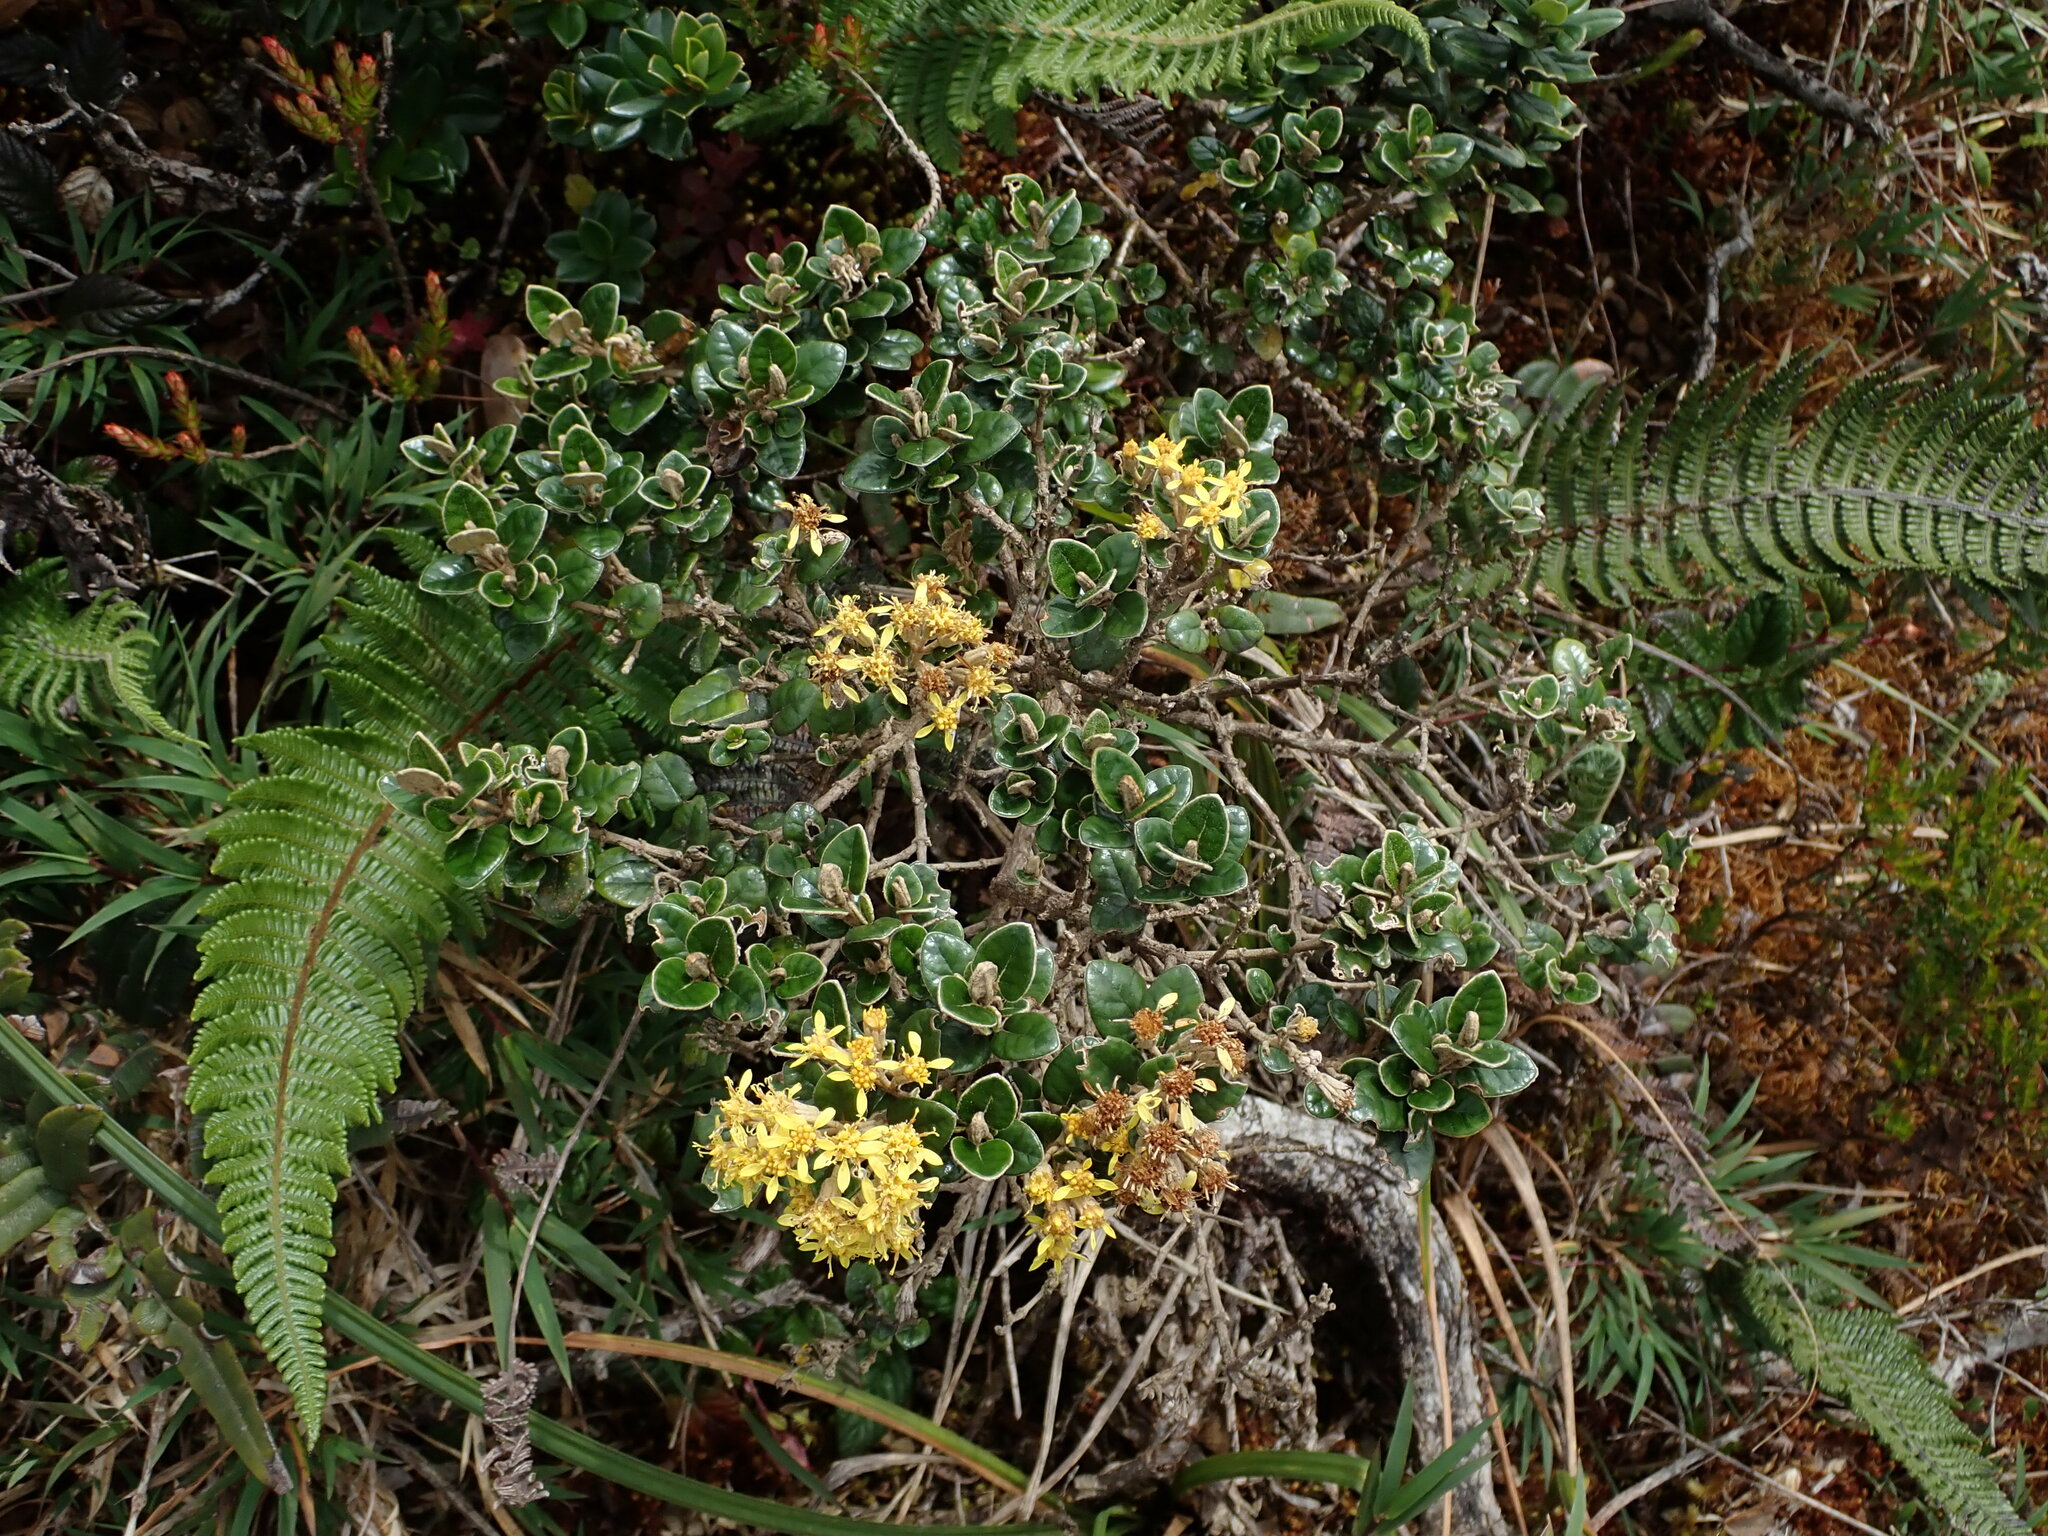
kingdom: Plantae
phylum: Tracheophyta
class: Magnoliopsida
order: Asterales
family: Asteraceae
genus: Gynoxys
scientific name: Gynoxys buxifolia
